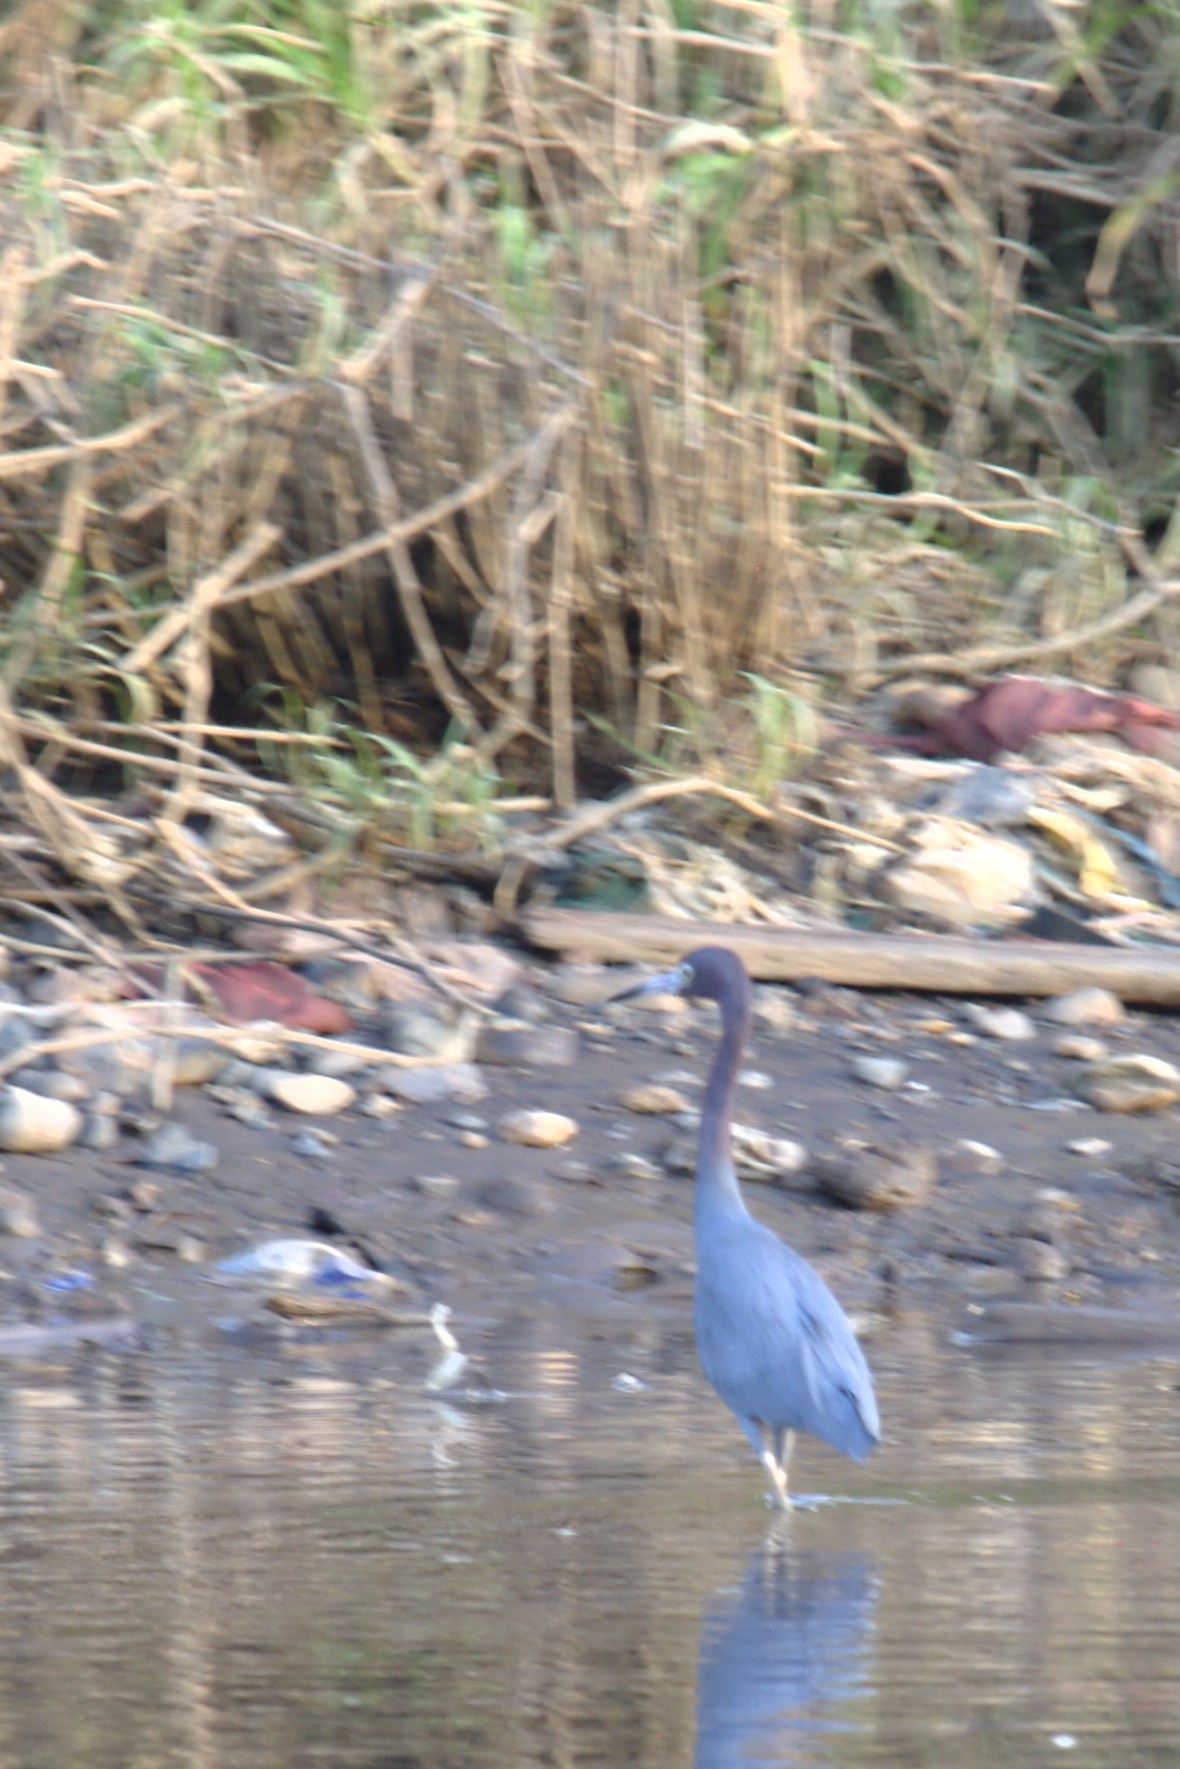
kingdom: Animalia
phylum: Chordata
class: Aves
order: Pelecaniformes
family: Ardeidae
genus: Egretta
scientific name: Egretta caerulea
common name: Little blue heron
